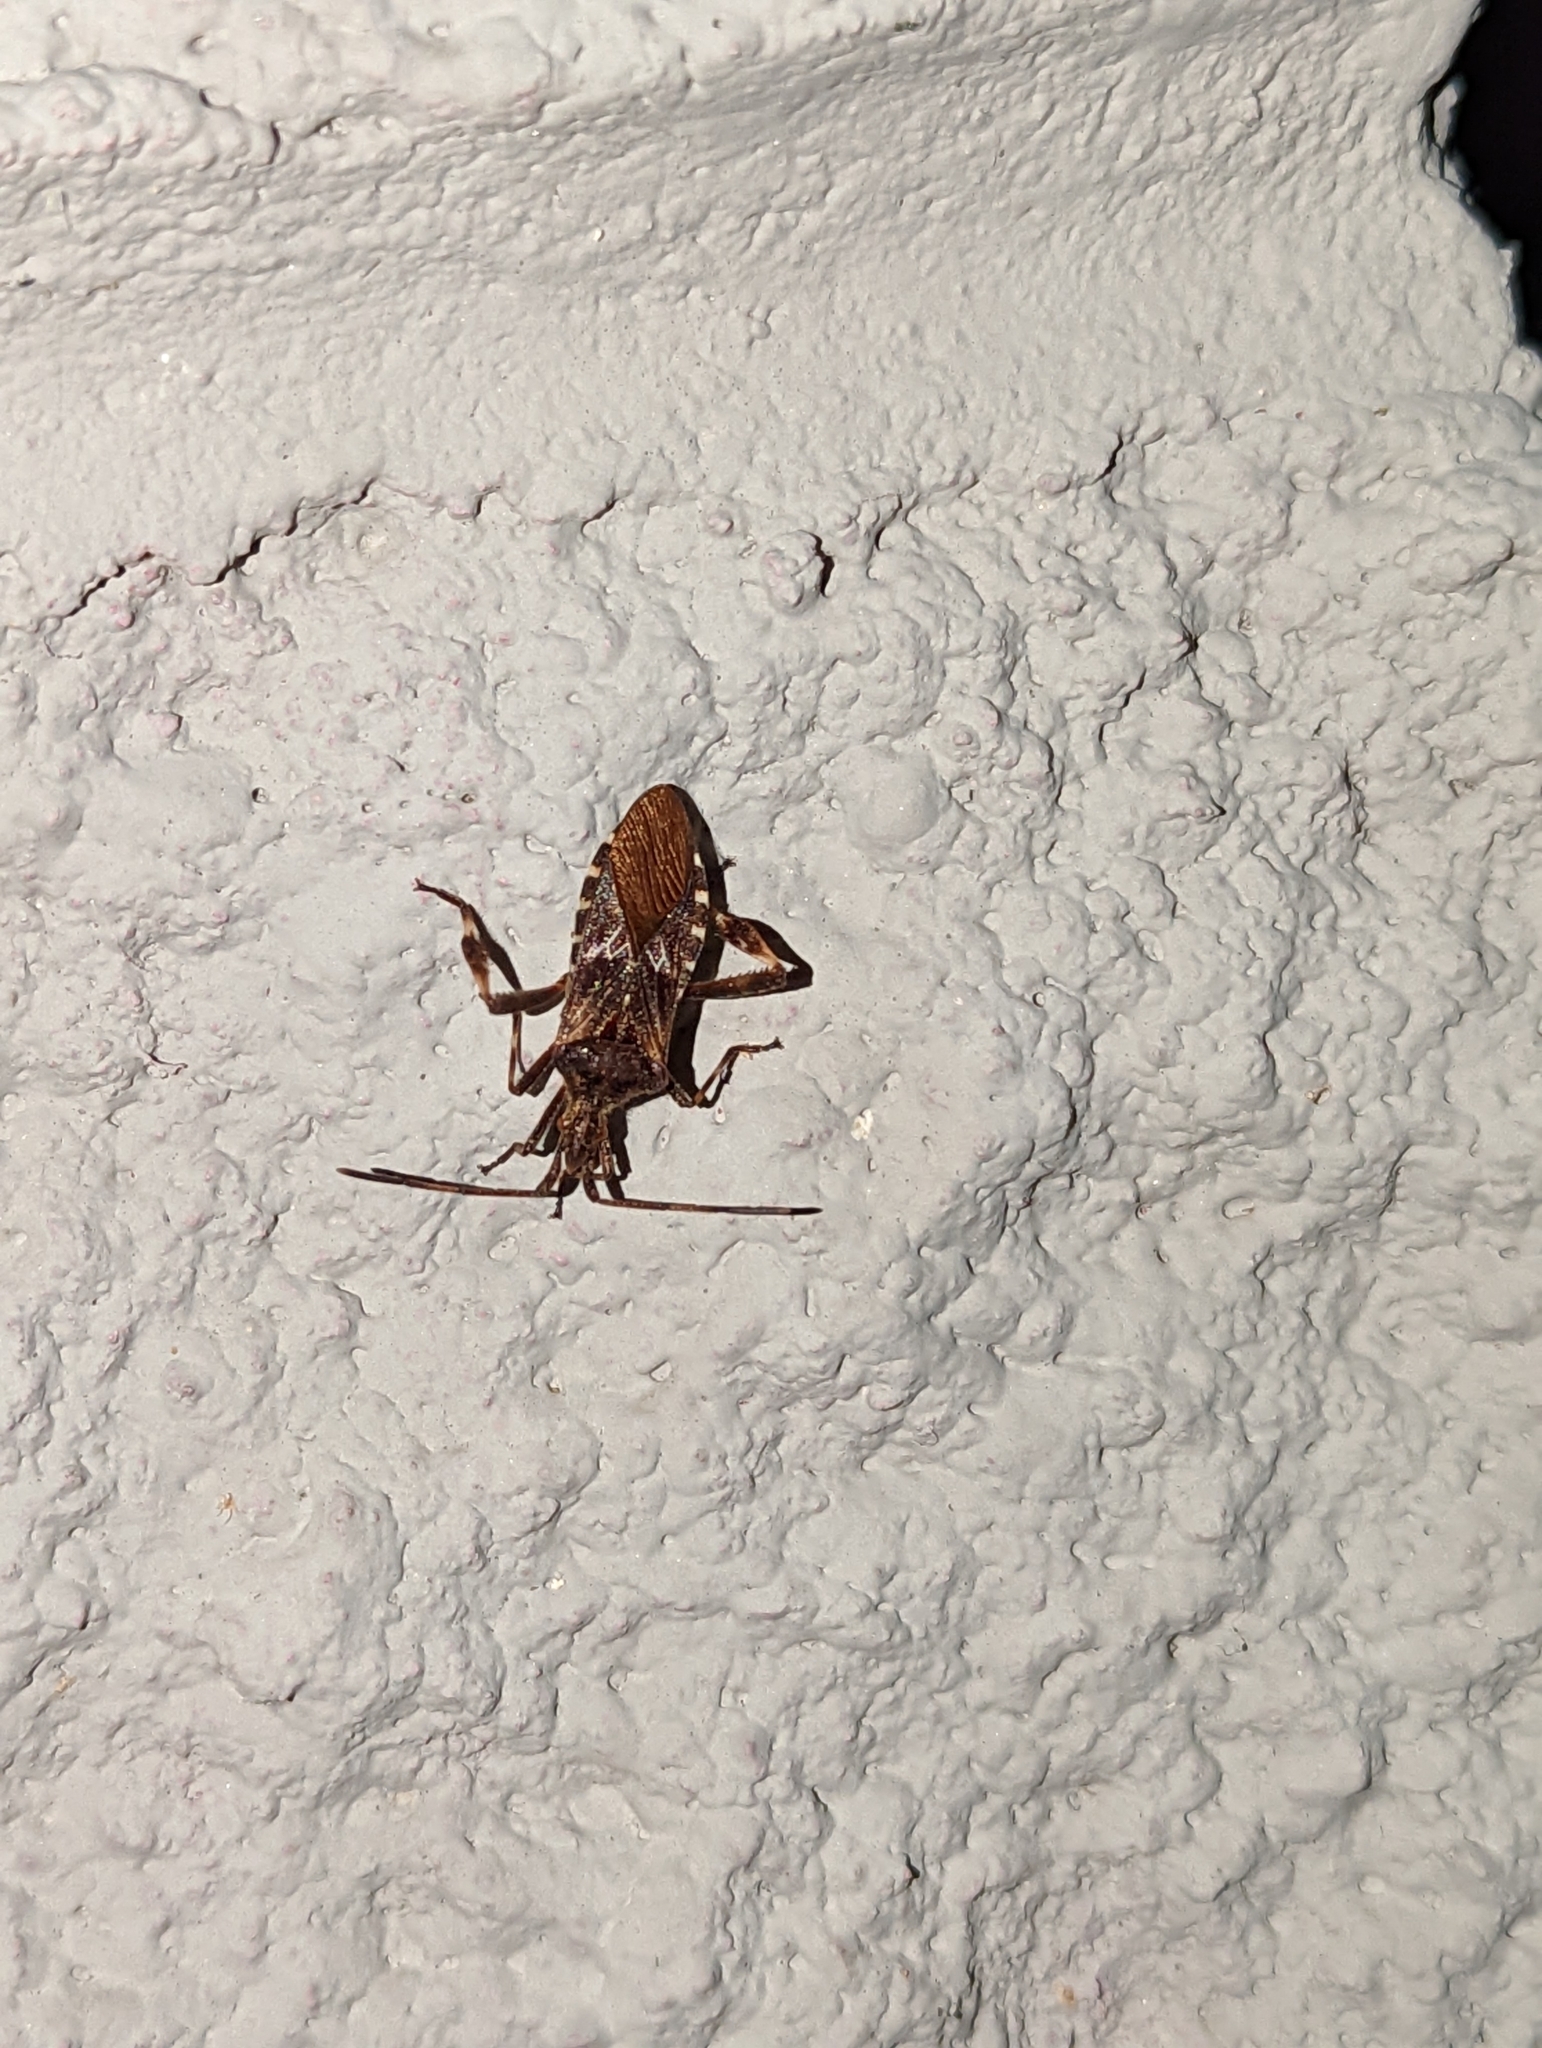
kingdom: Animalia
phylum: Arthropoda
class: Insecta
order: Hemiptera
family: Coreidae
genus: Leptoglossus
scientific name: Leptoglossus occidentalis
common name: Western conifer-seed bug
